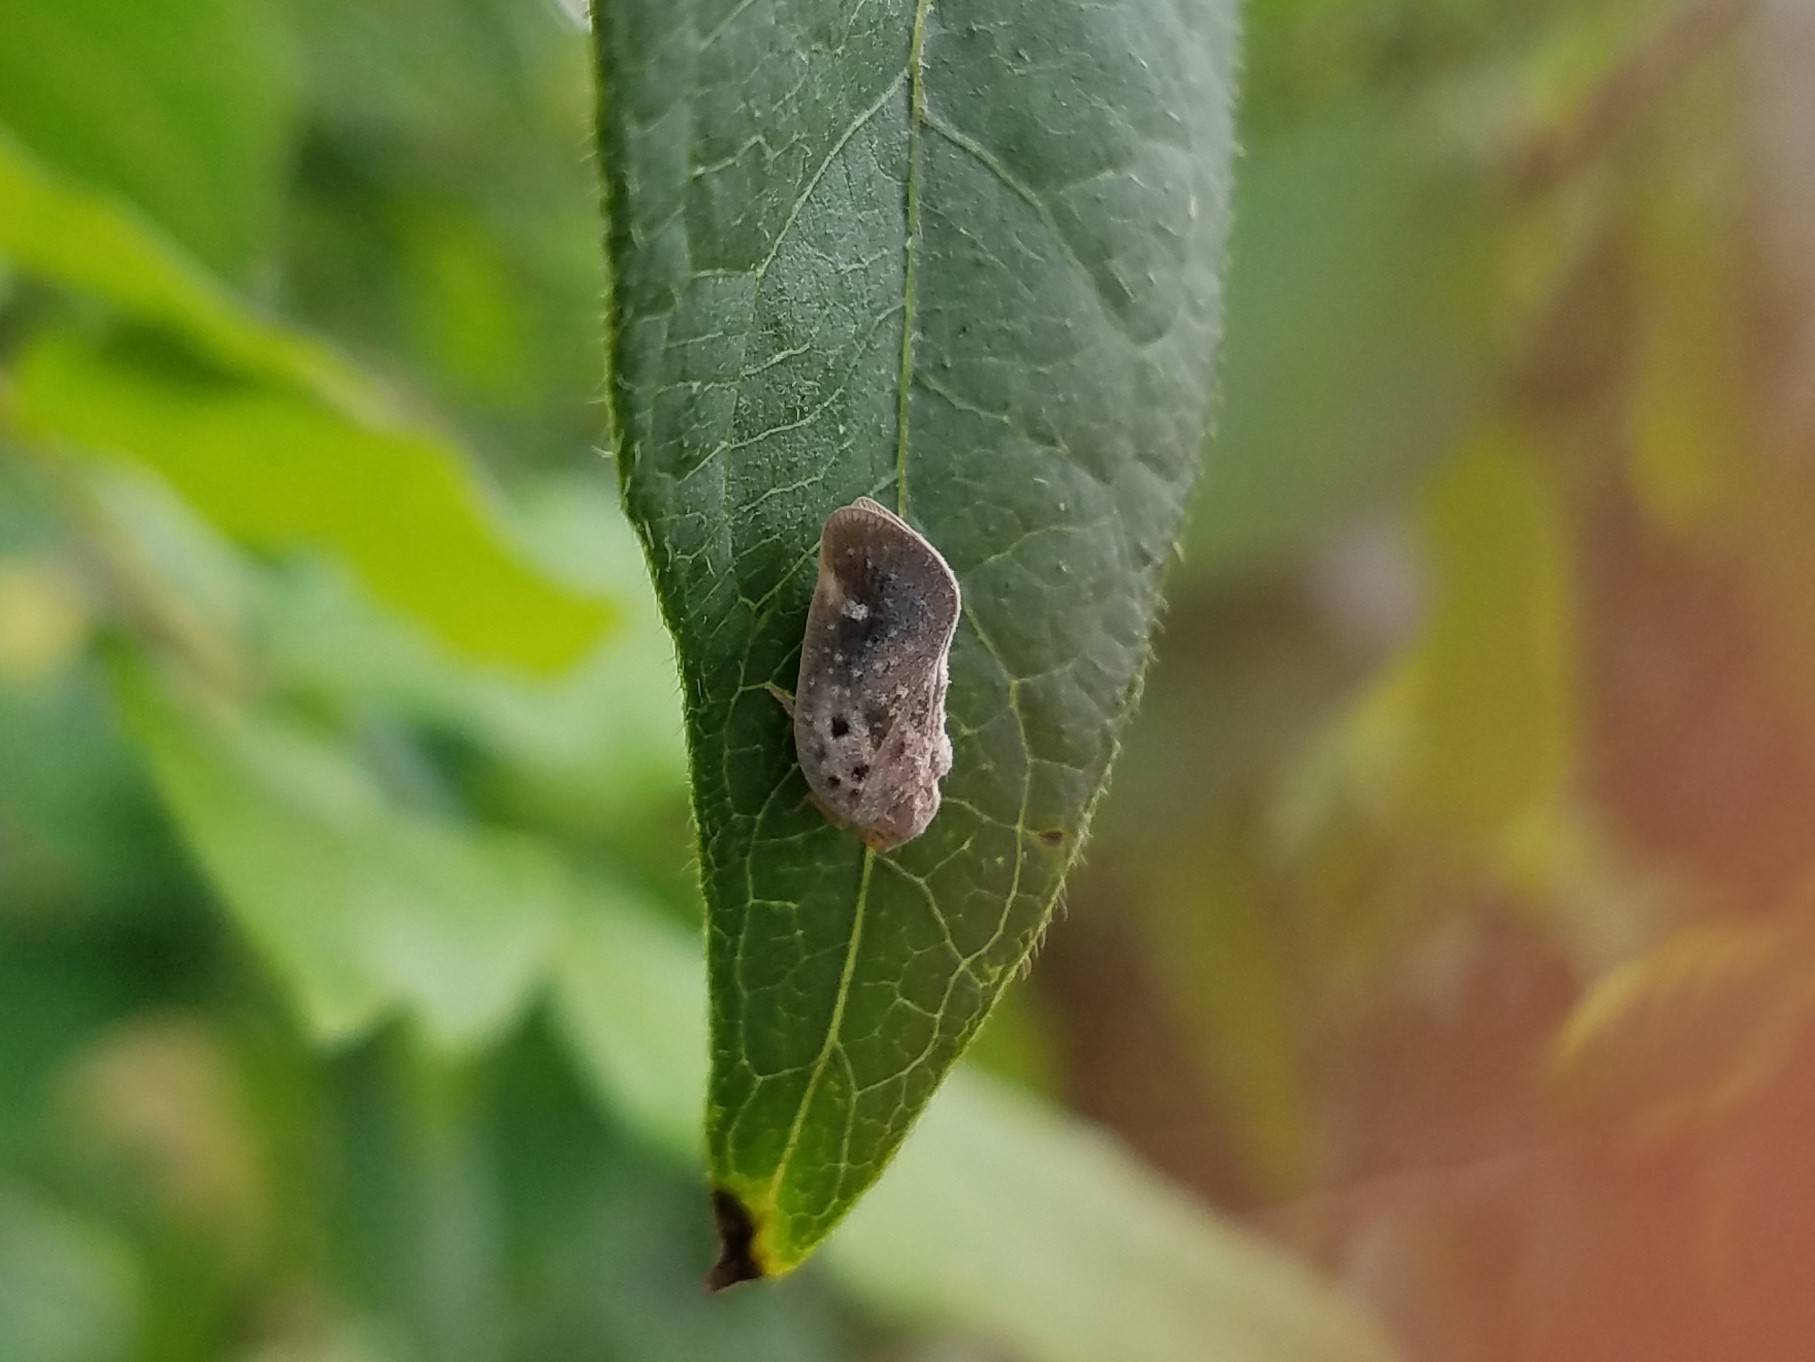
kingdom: Animalia
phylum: Arthropoda
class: Insecta
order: Hemiptera
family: Flatidae
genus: Metcalfa
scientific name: Metcalfa pruinosa
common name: Citrus flatid planthopper
